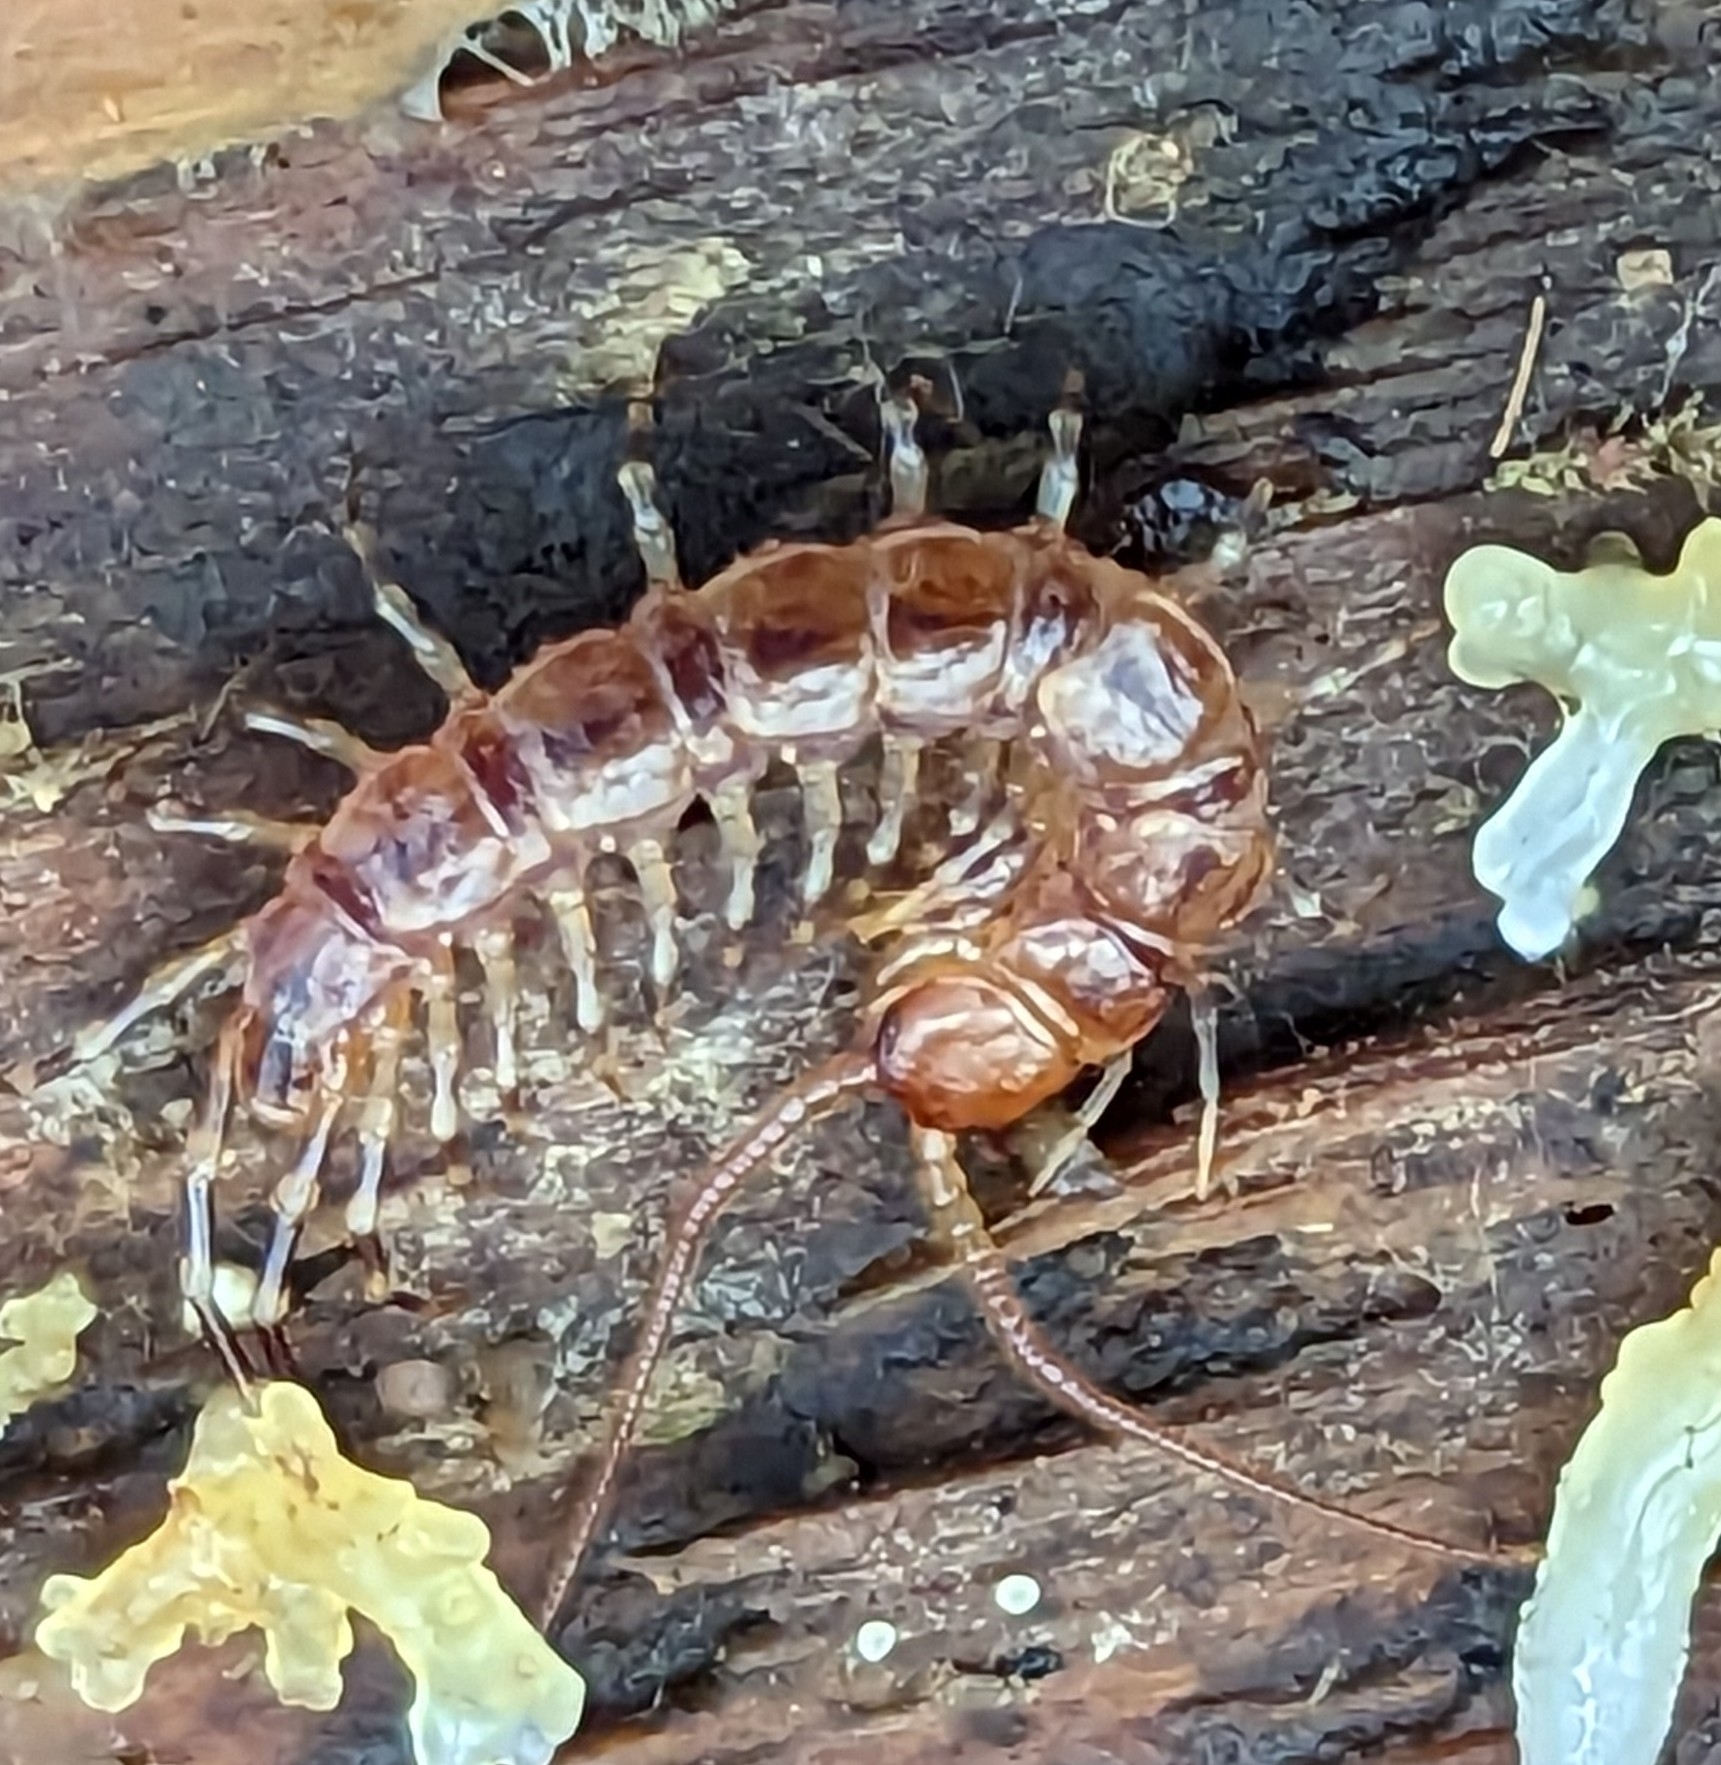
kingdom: Animalia
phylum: Arthropoda
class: Chilopoda
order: Lithobiomorpha
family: Lithobiidae
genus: Lithobius
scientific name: Lithobius variegatus
